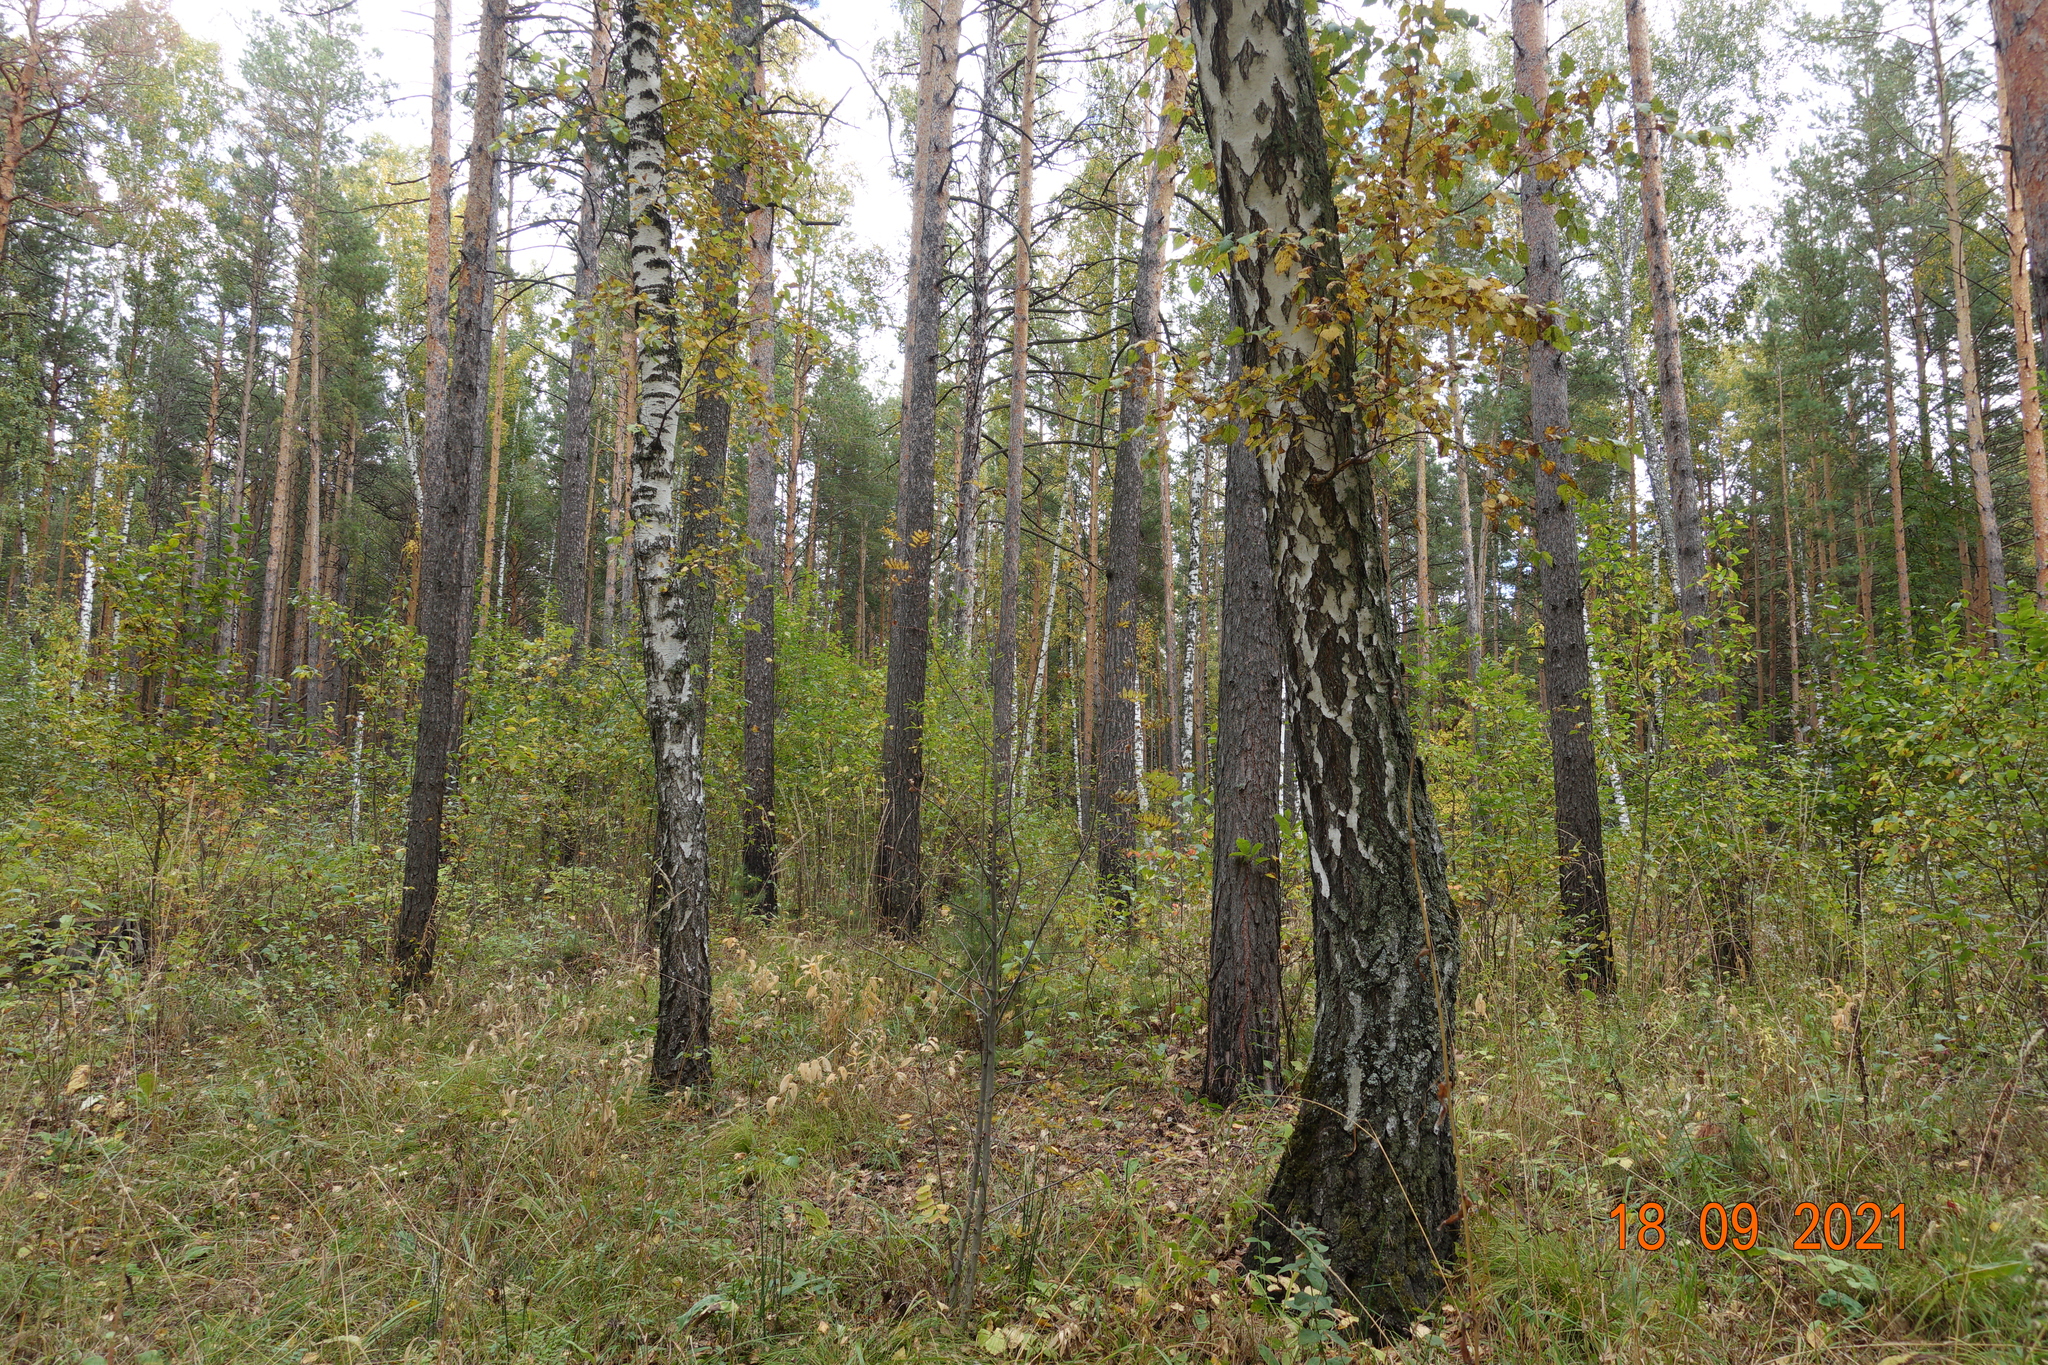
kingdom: Plantae
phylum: Tracheophyta
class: Magnoliopsida
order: Fagales
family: Betulaceae
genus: Betula
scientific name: Betula pendula
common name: Silver birch
